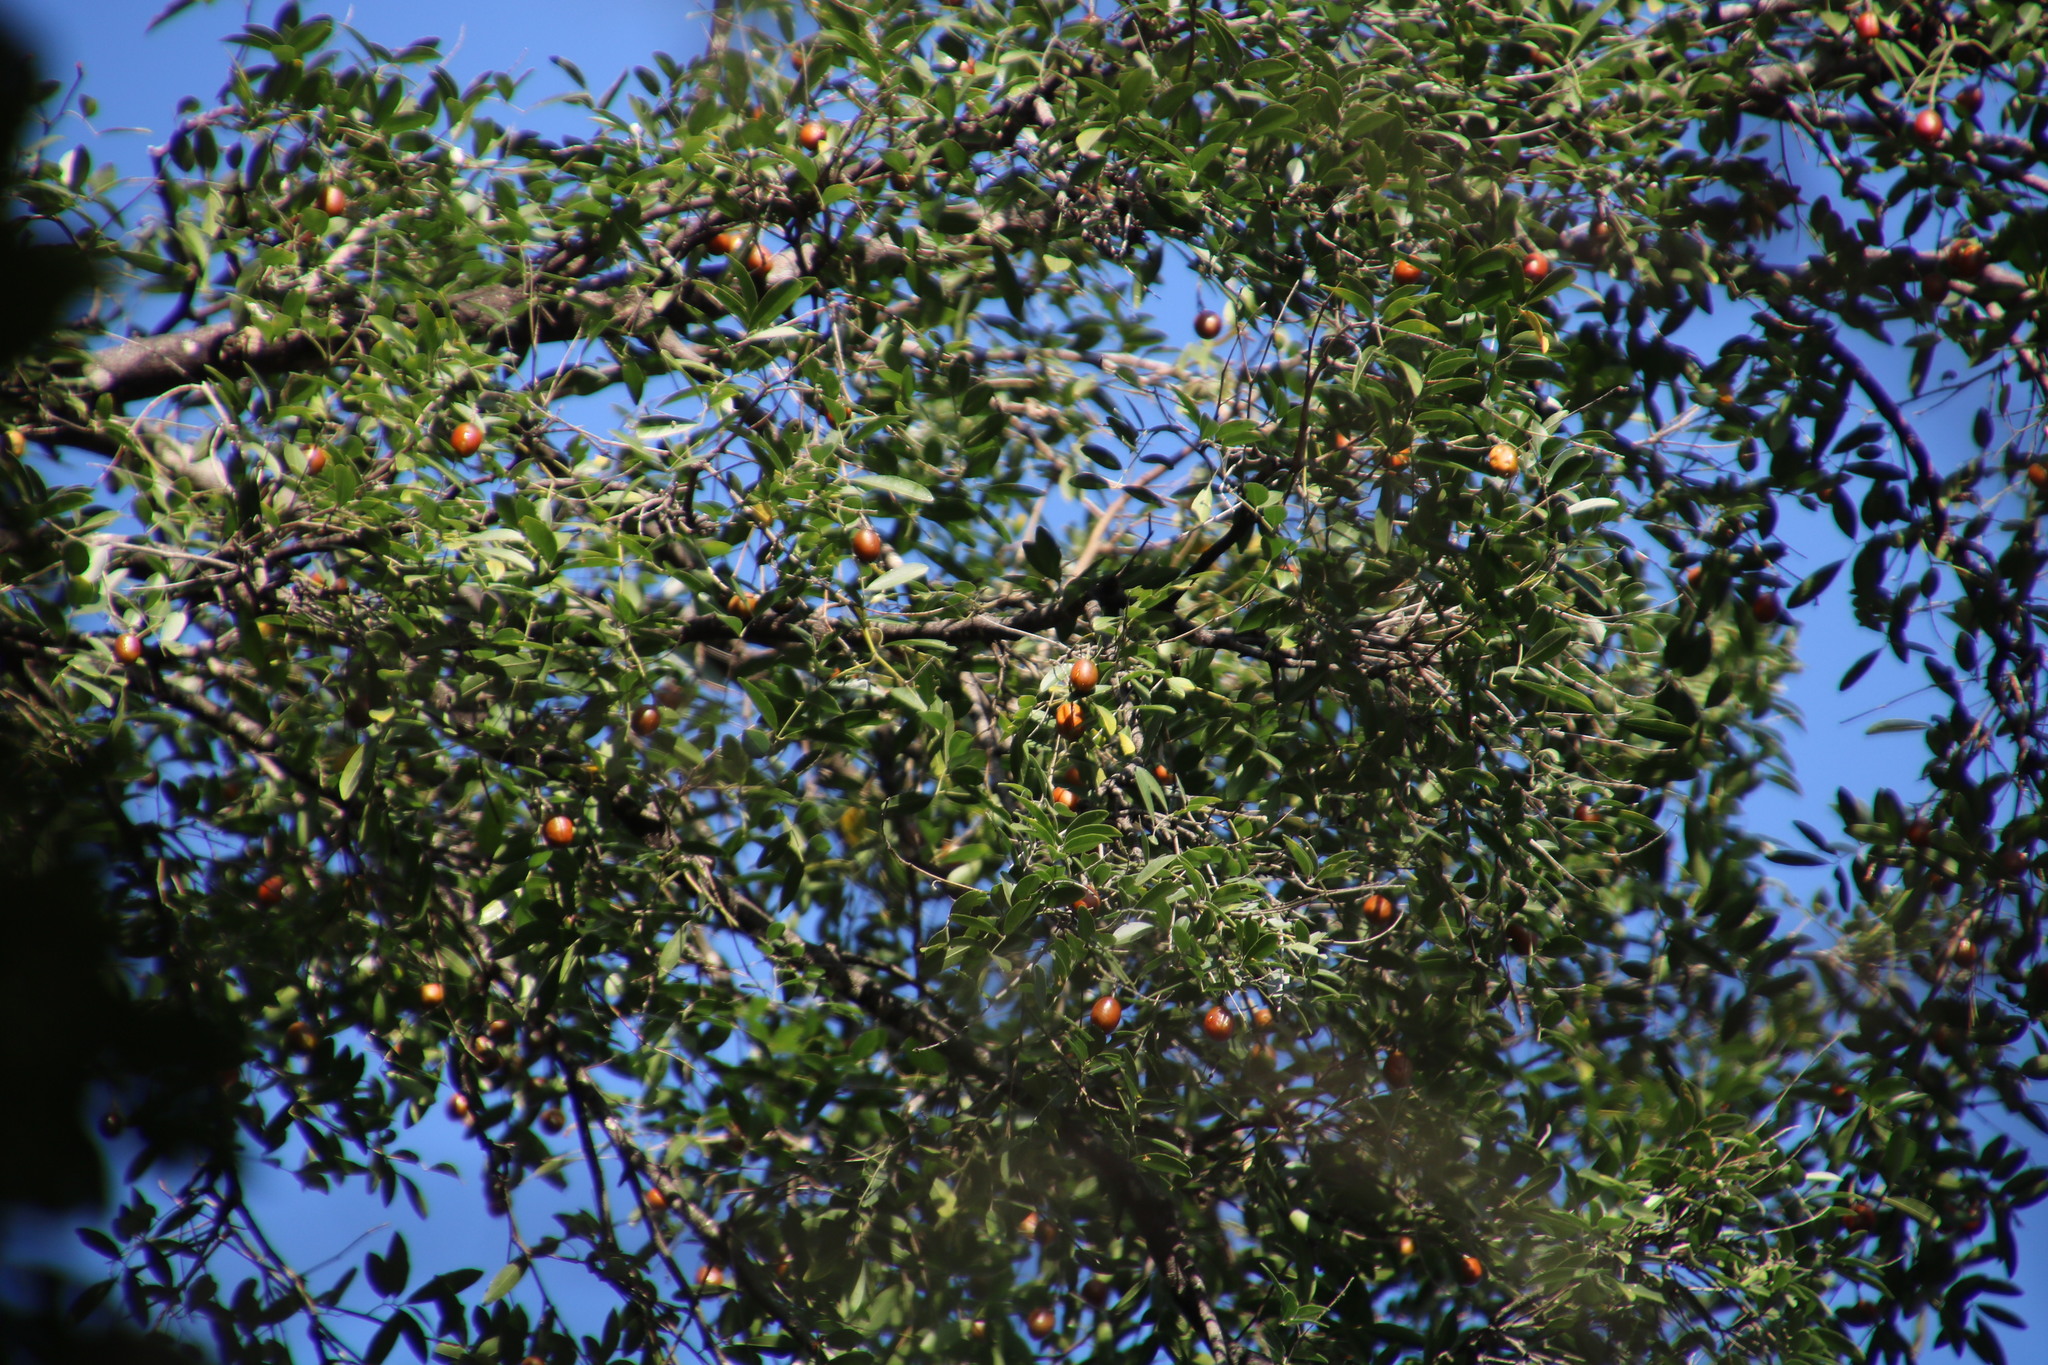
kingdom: Plantae
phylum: Tracheophyta
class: Magnoliopsida
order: Fabales
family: Fabaceae
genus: Xanthocercis
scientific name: Xanthocercis zambesiaca
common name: Nyala-tree
